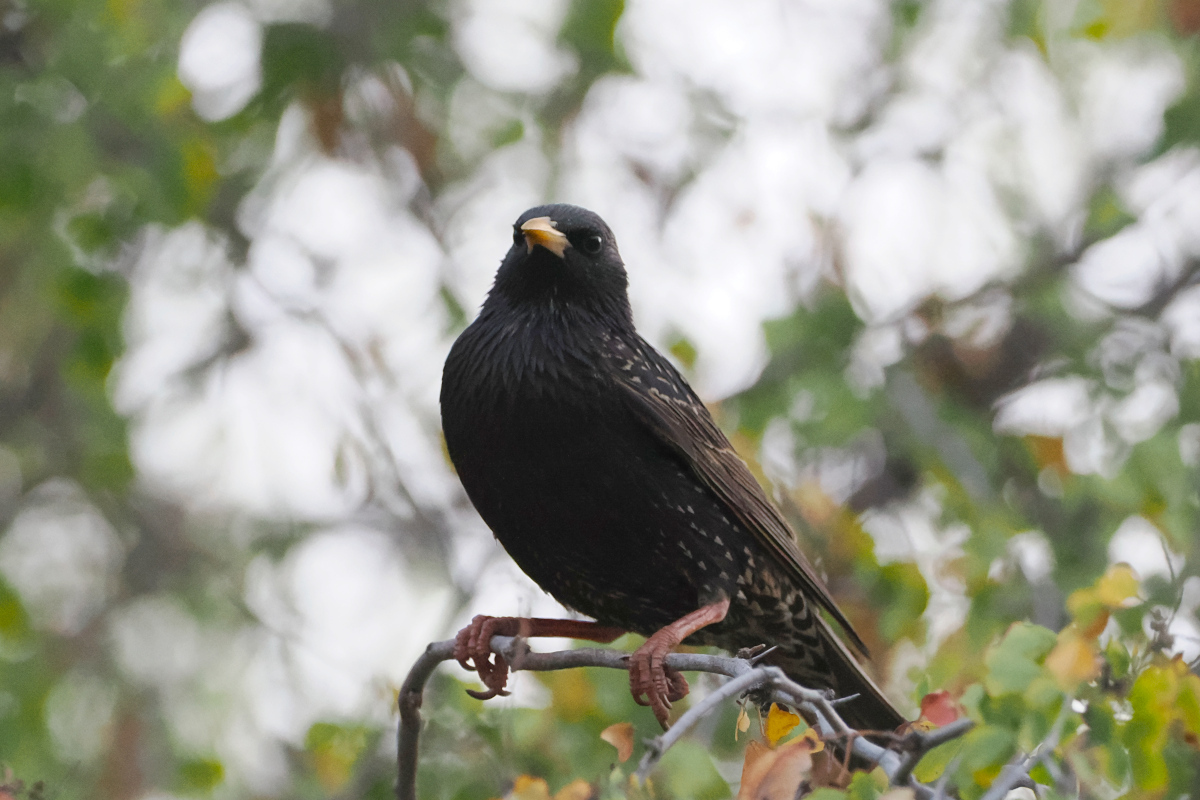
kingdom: Animalia
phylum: Chordata
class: Aves
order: Passeriformes
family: Sturnidae
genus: Sturnus
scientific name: Sturnus vulgaris
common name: Common starling
